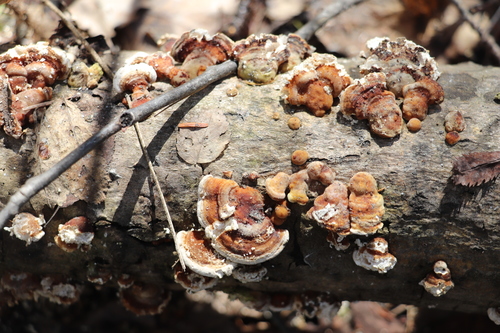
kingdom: Fungi
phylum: Basidiomycota
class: Agaricomycetes
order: Polyporales
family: Polyporaceae
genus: Trametes
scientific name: Trametes ochracea
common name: Ochre bracket
